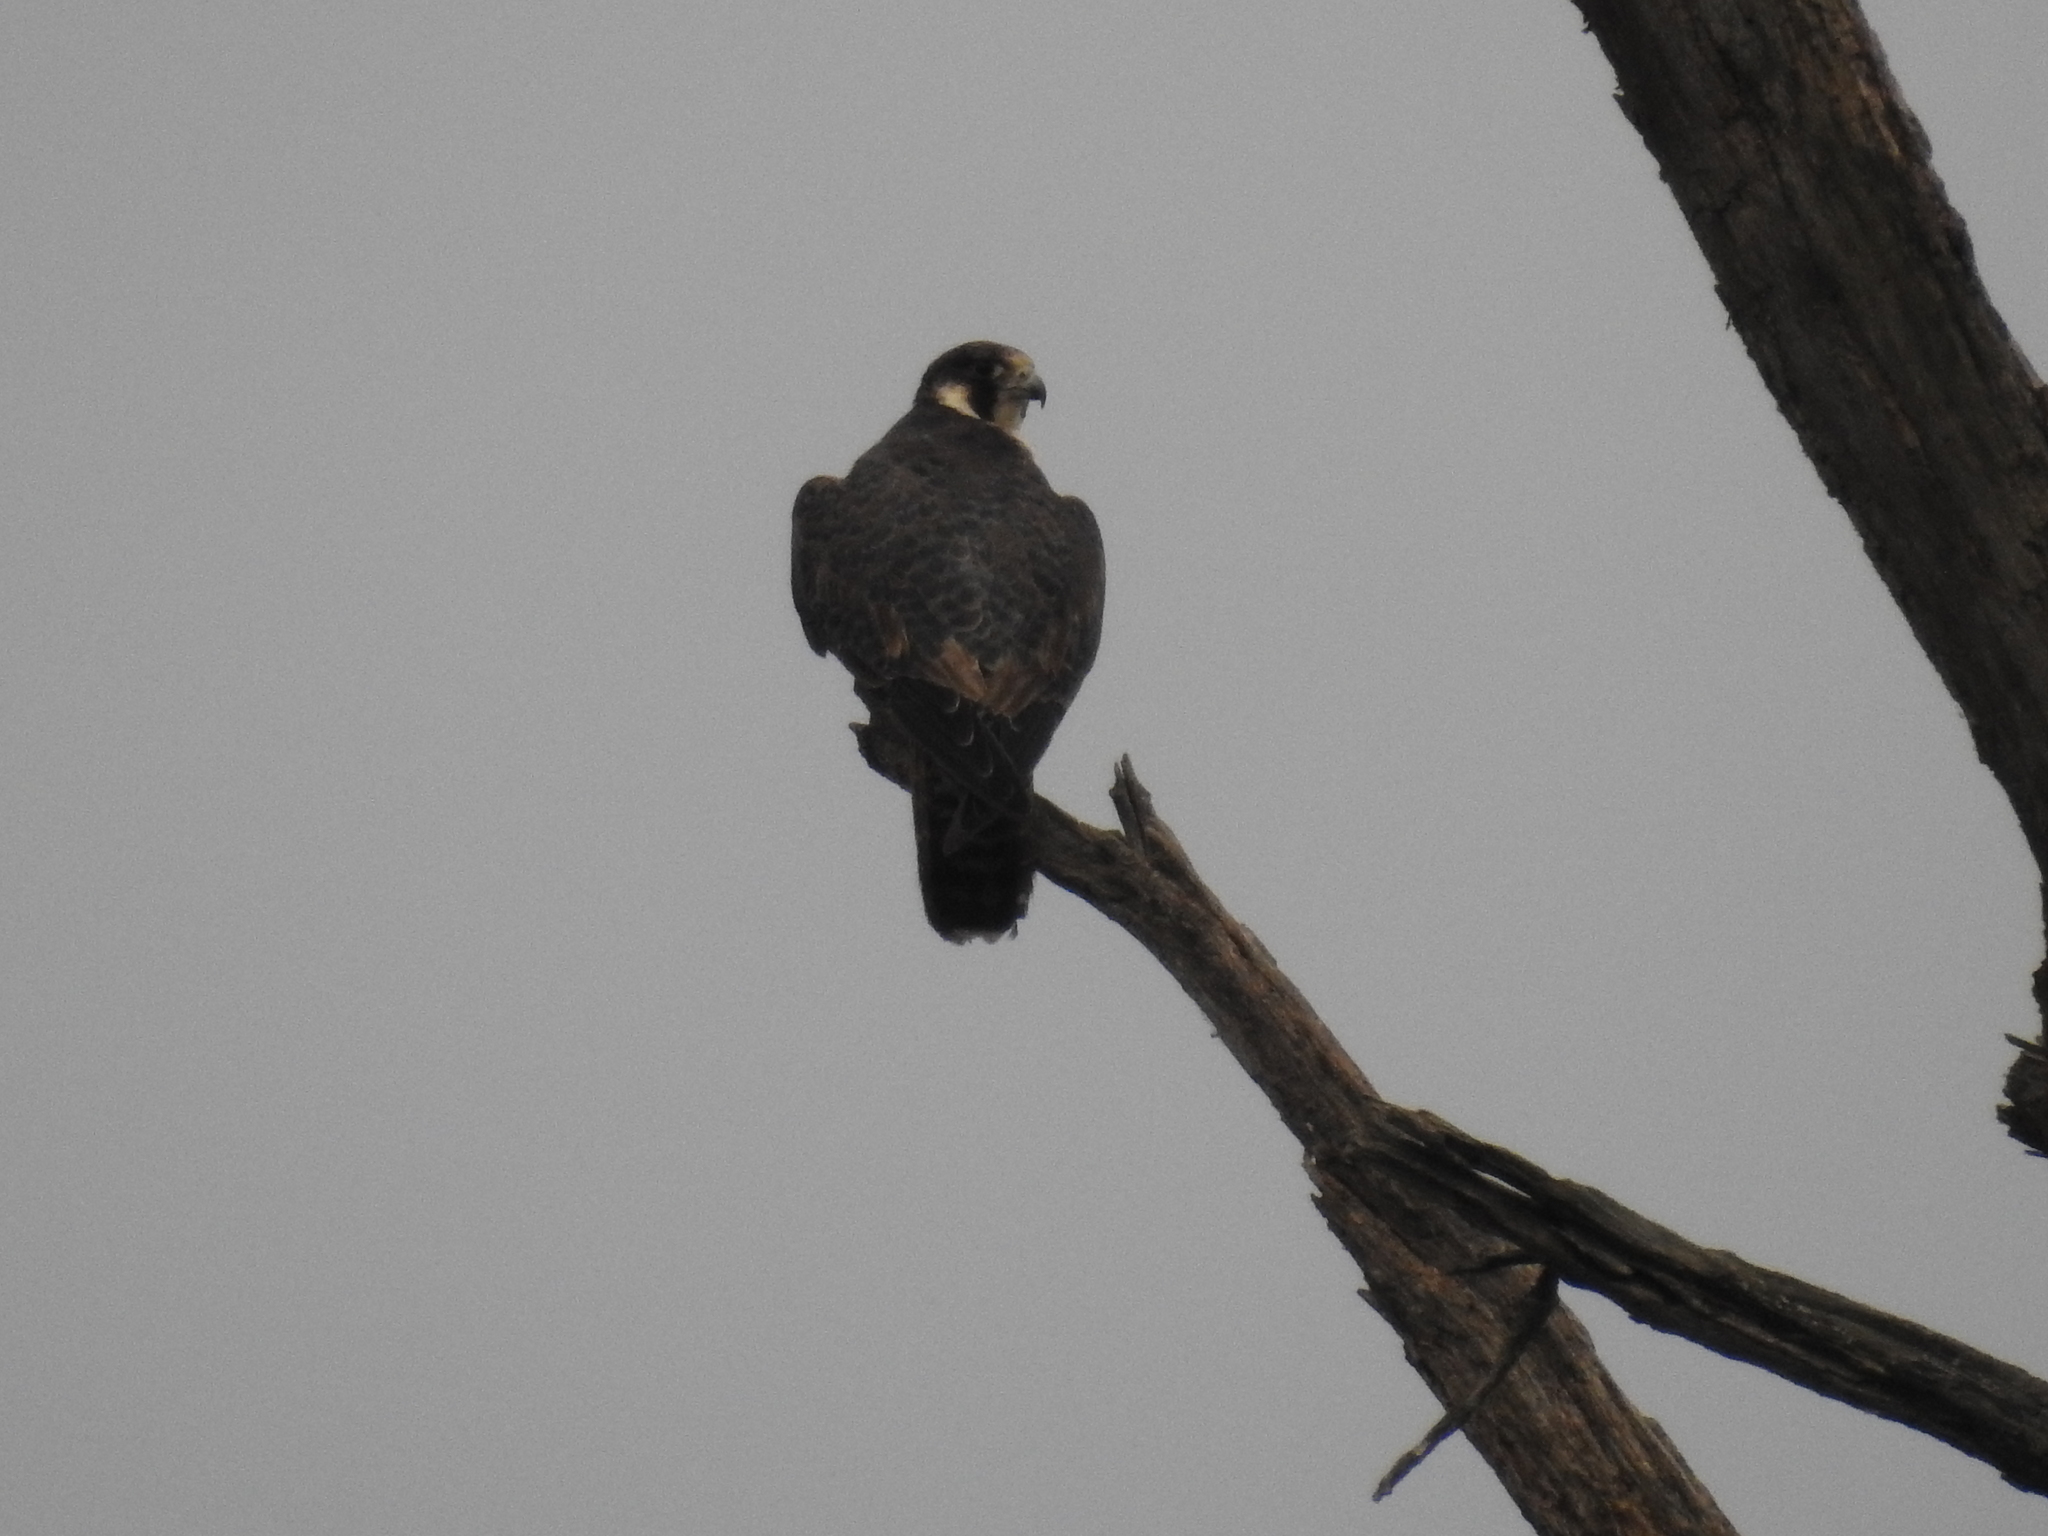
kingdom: Animalia
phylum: Chordata
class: Aves
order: Falconiformes
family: Falconidae
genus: Falco
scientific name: Falco peregrinus
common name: Peregrine falcon
